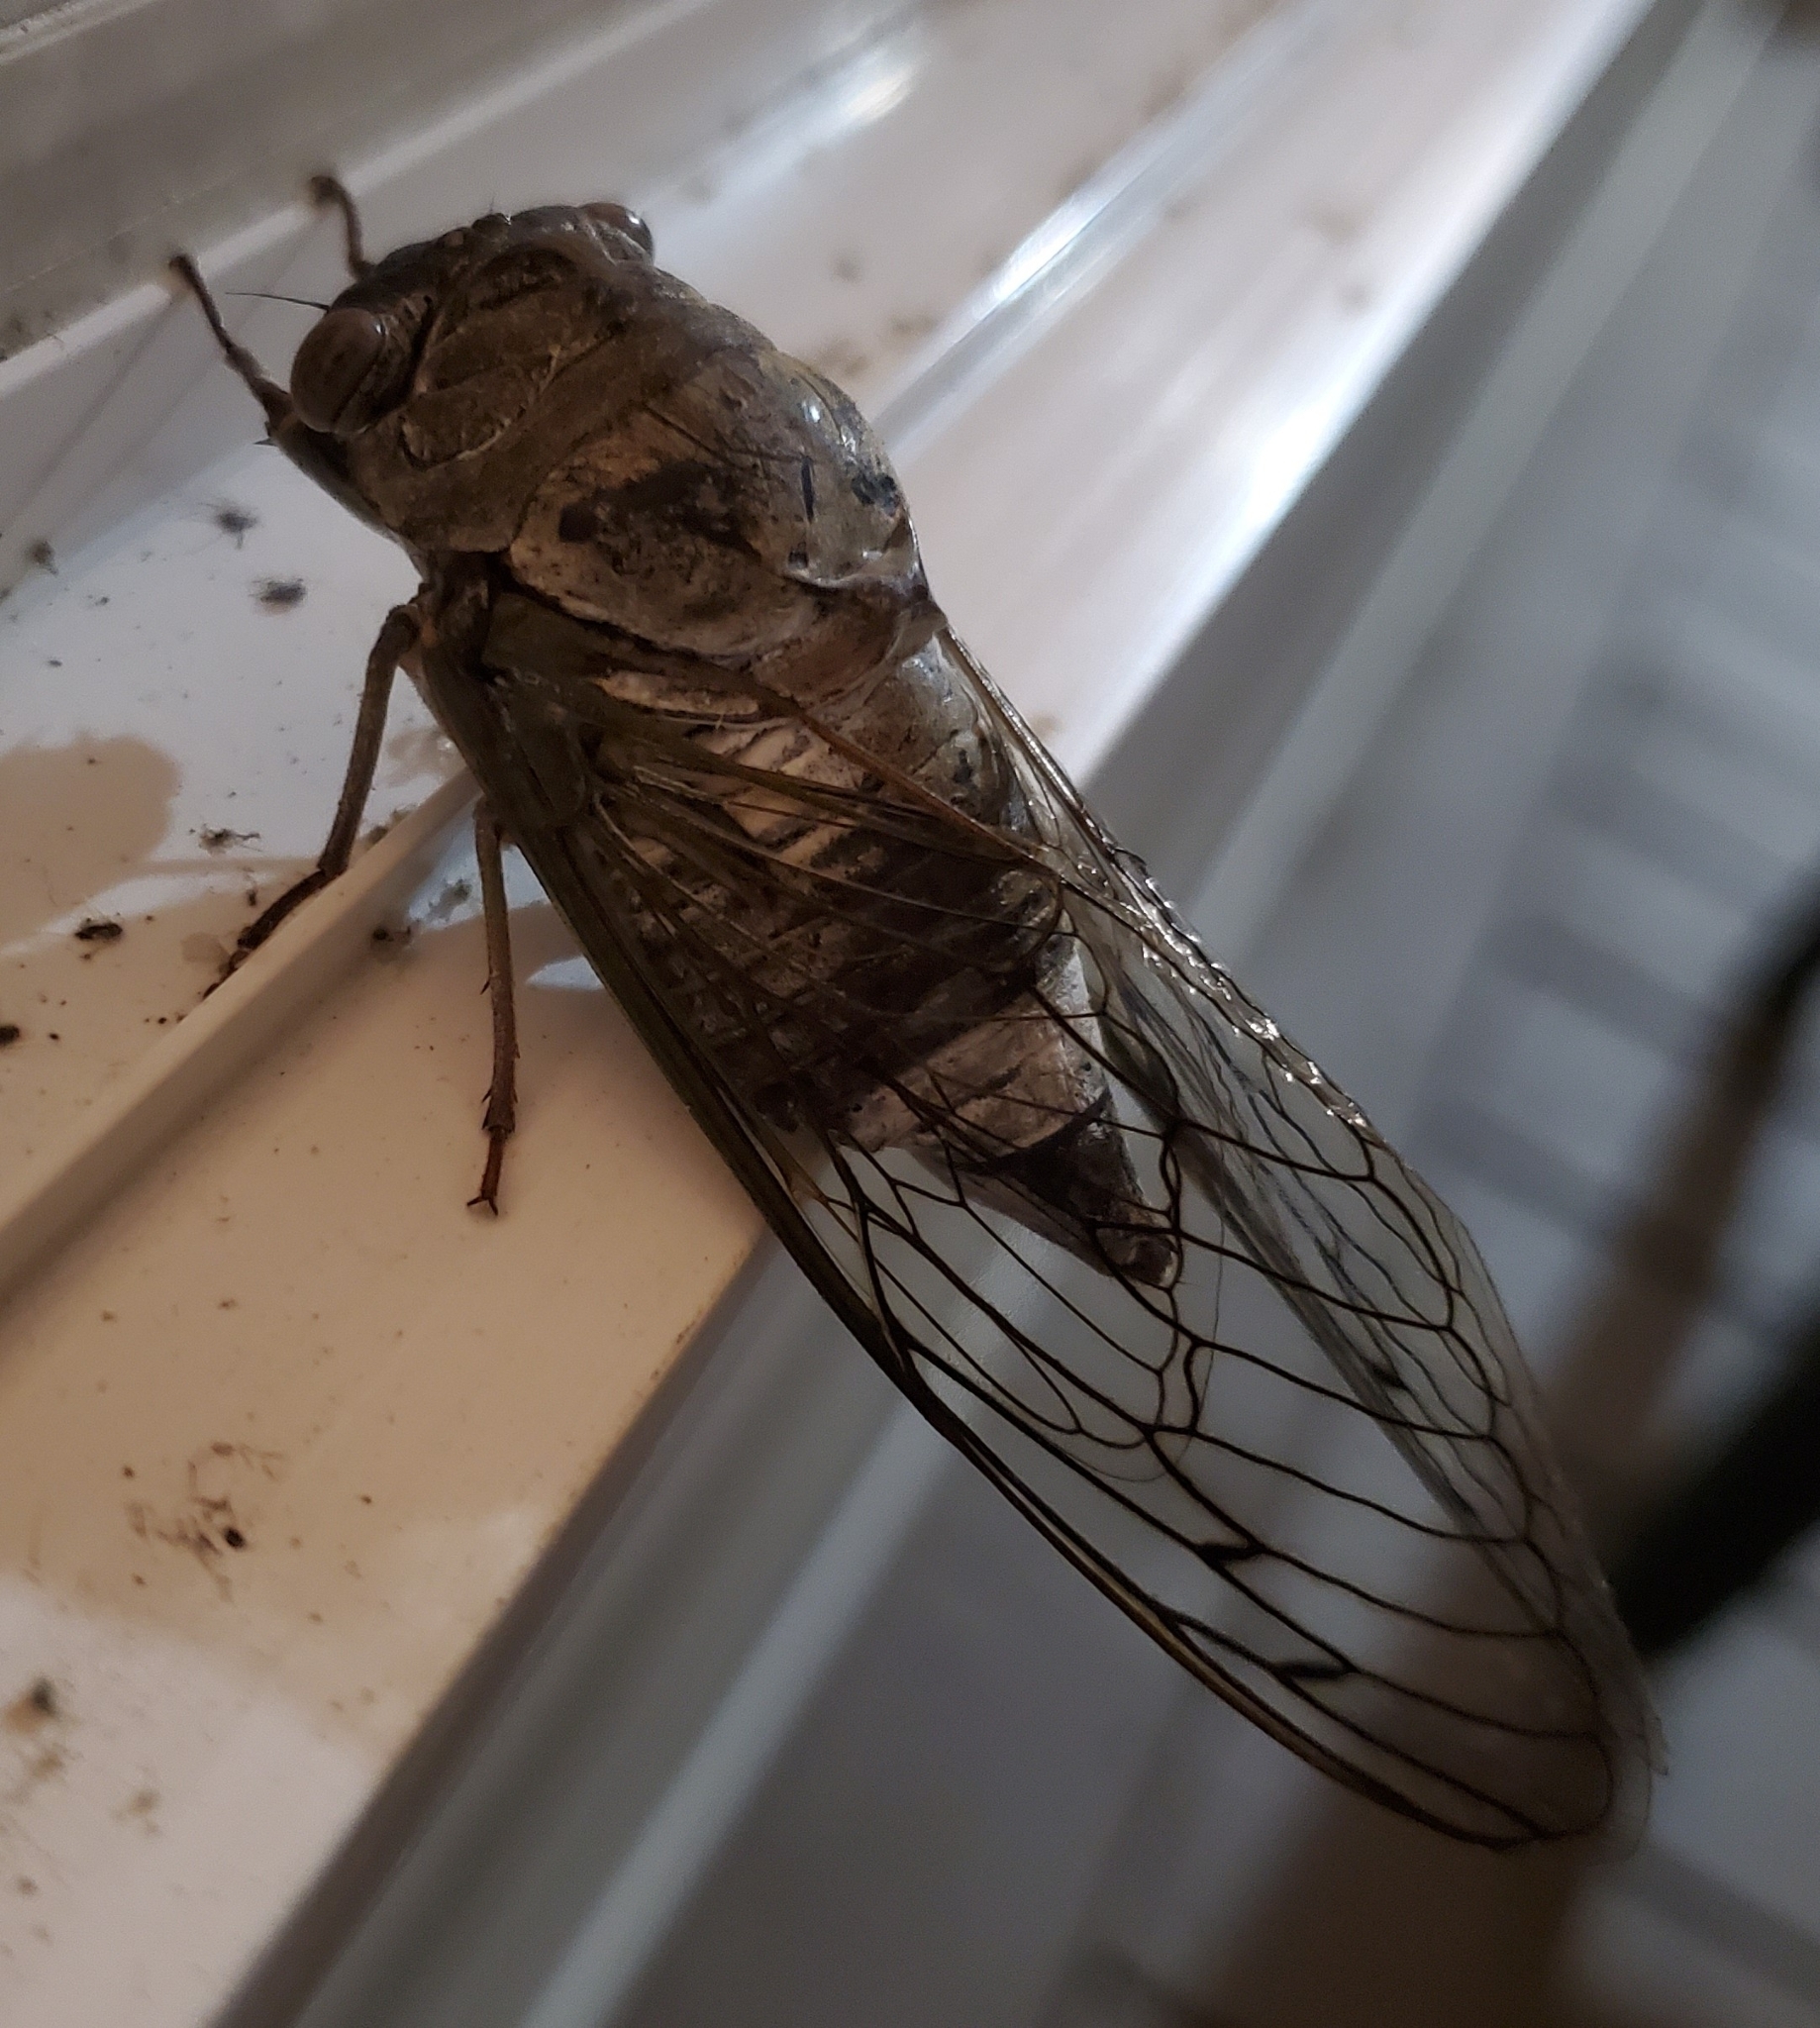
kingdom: Animalia
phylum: Arthropoda
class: Insecta
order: Hemiptera
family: Cicadidae
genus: Diceroprocta
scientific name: Diceroprocta grossa
